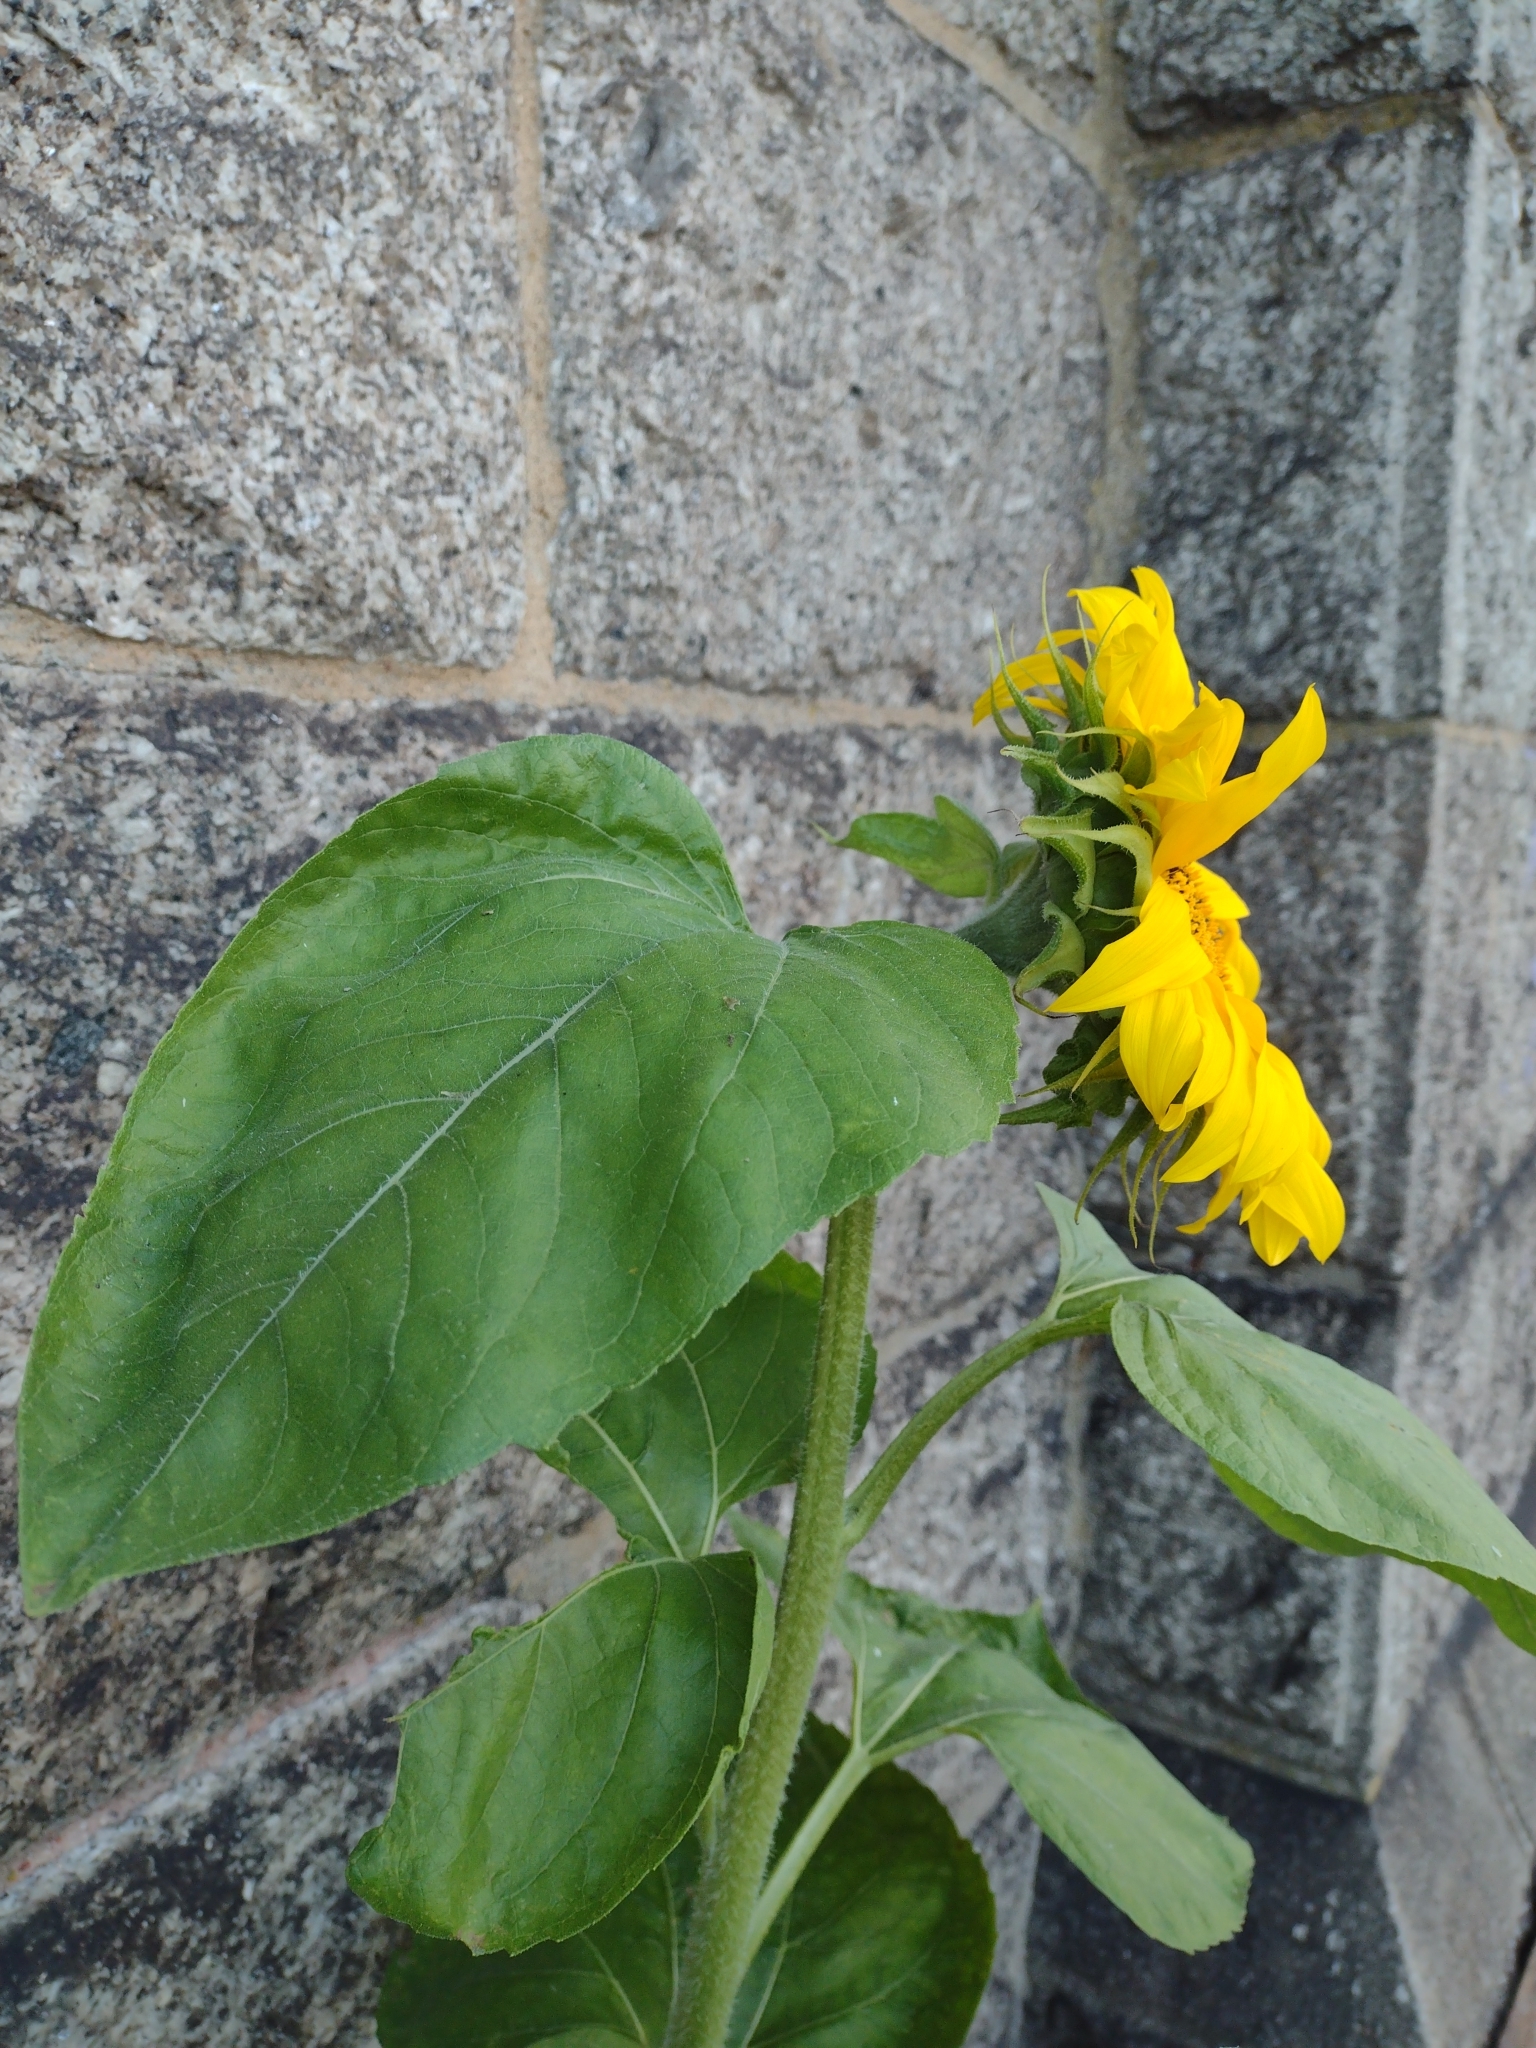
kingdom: Plantae
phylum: Tracheophyta
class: Magnoliopsida
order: Asterales
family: Asteraceae
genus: Helianthus
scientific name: Helianthus annuus
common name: Sunflower
